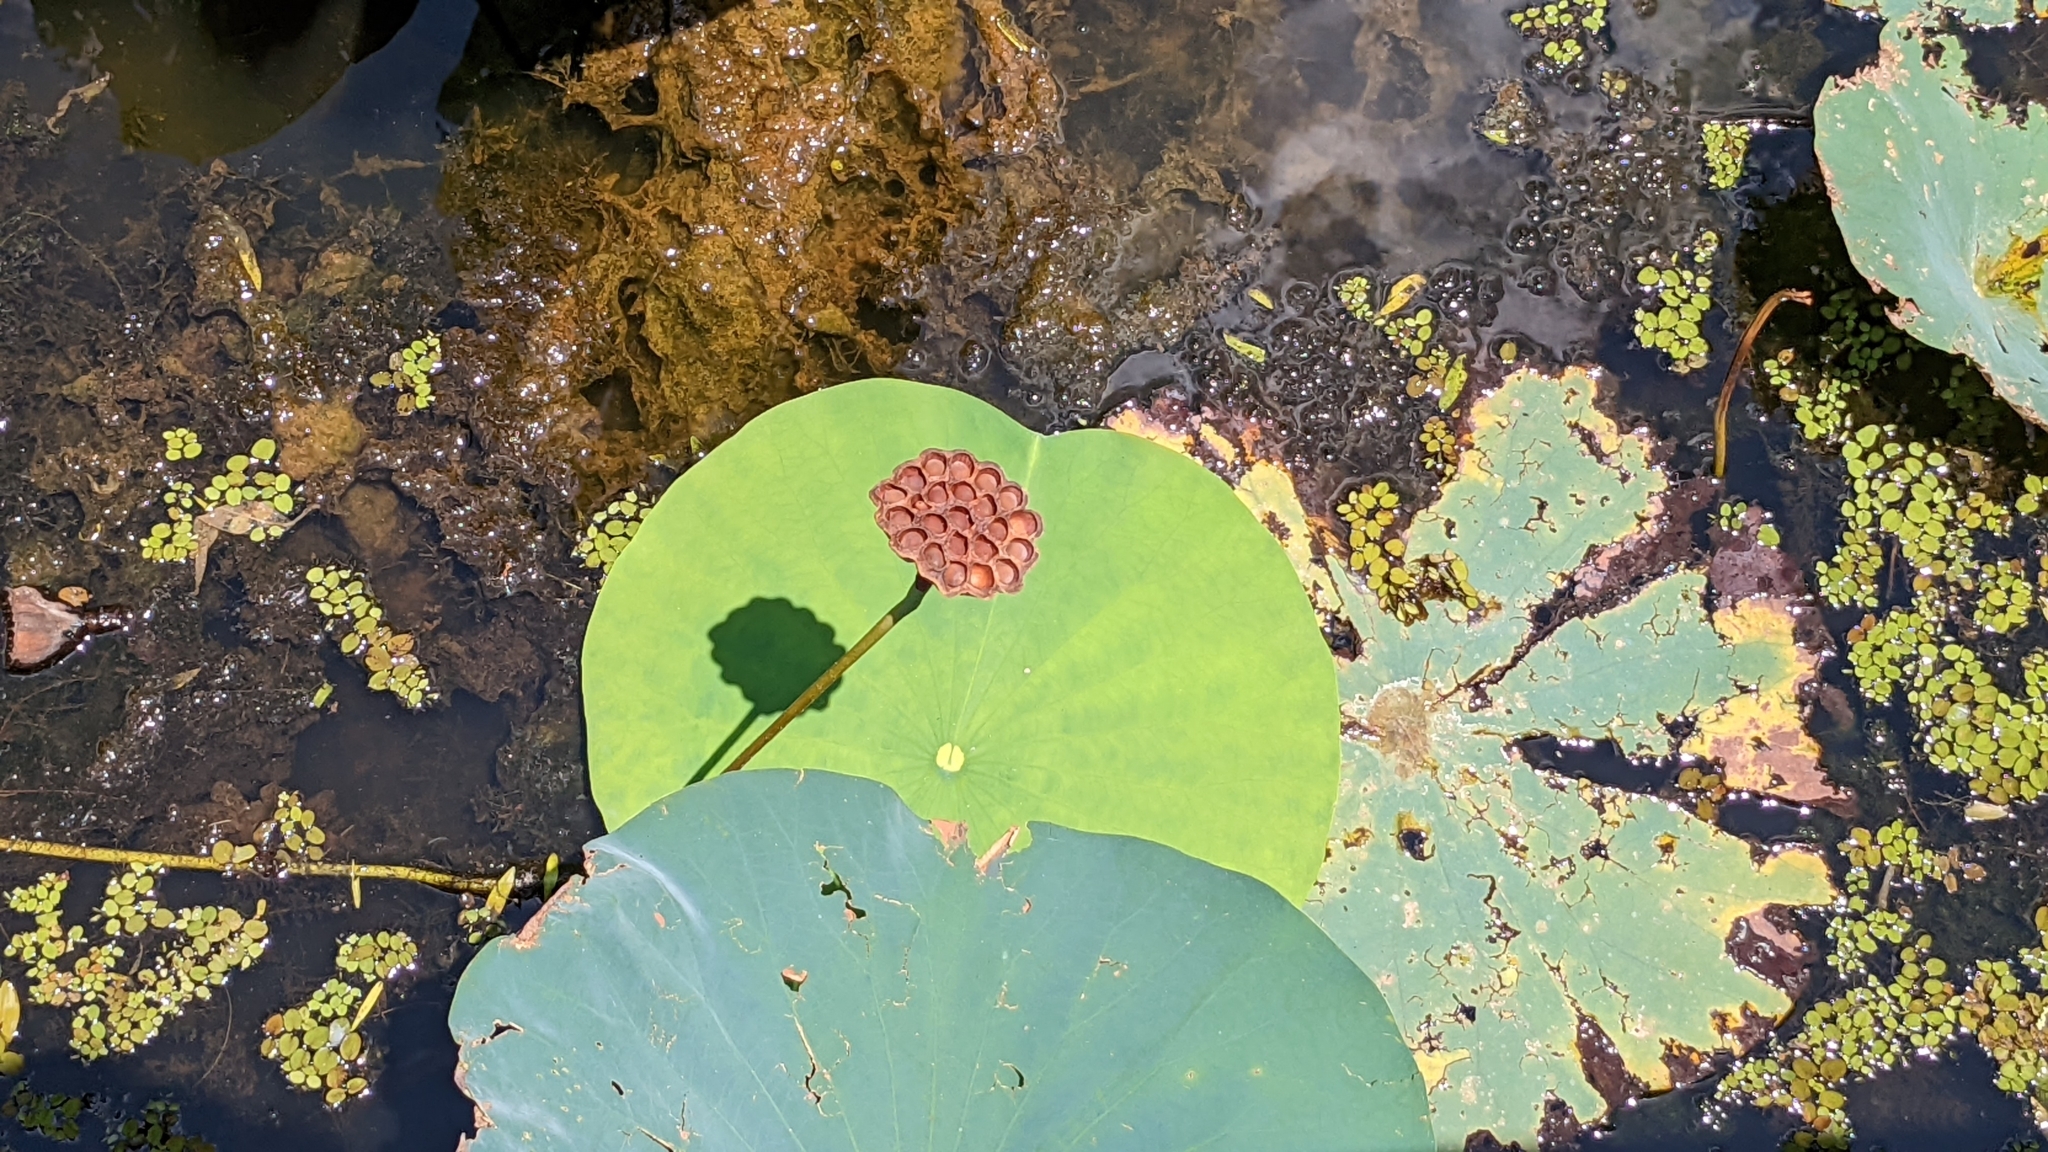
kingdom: Plantae
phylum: Tracheophyta
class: Magnoliopsida
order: Proteales
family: Nelumbonaceae
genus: Nelumbo
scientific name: Nelumbo lutea
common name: American lotus
